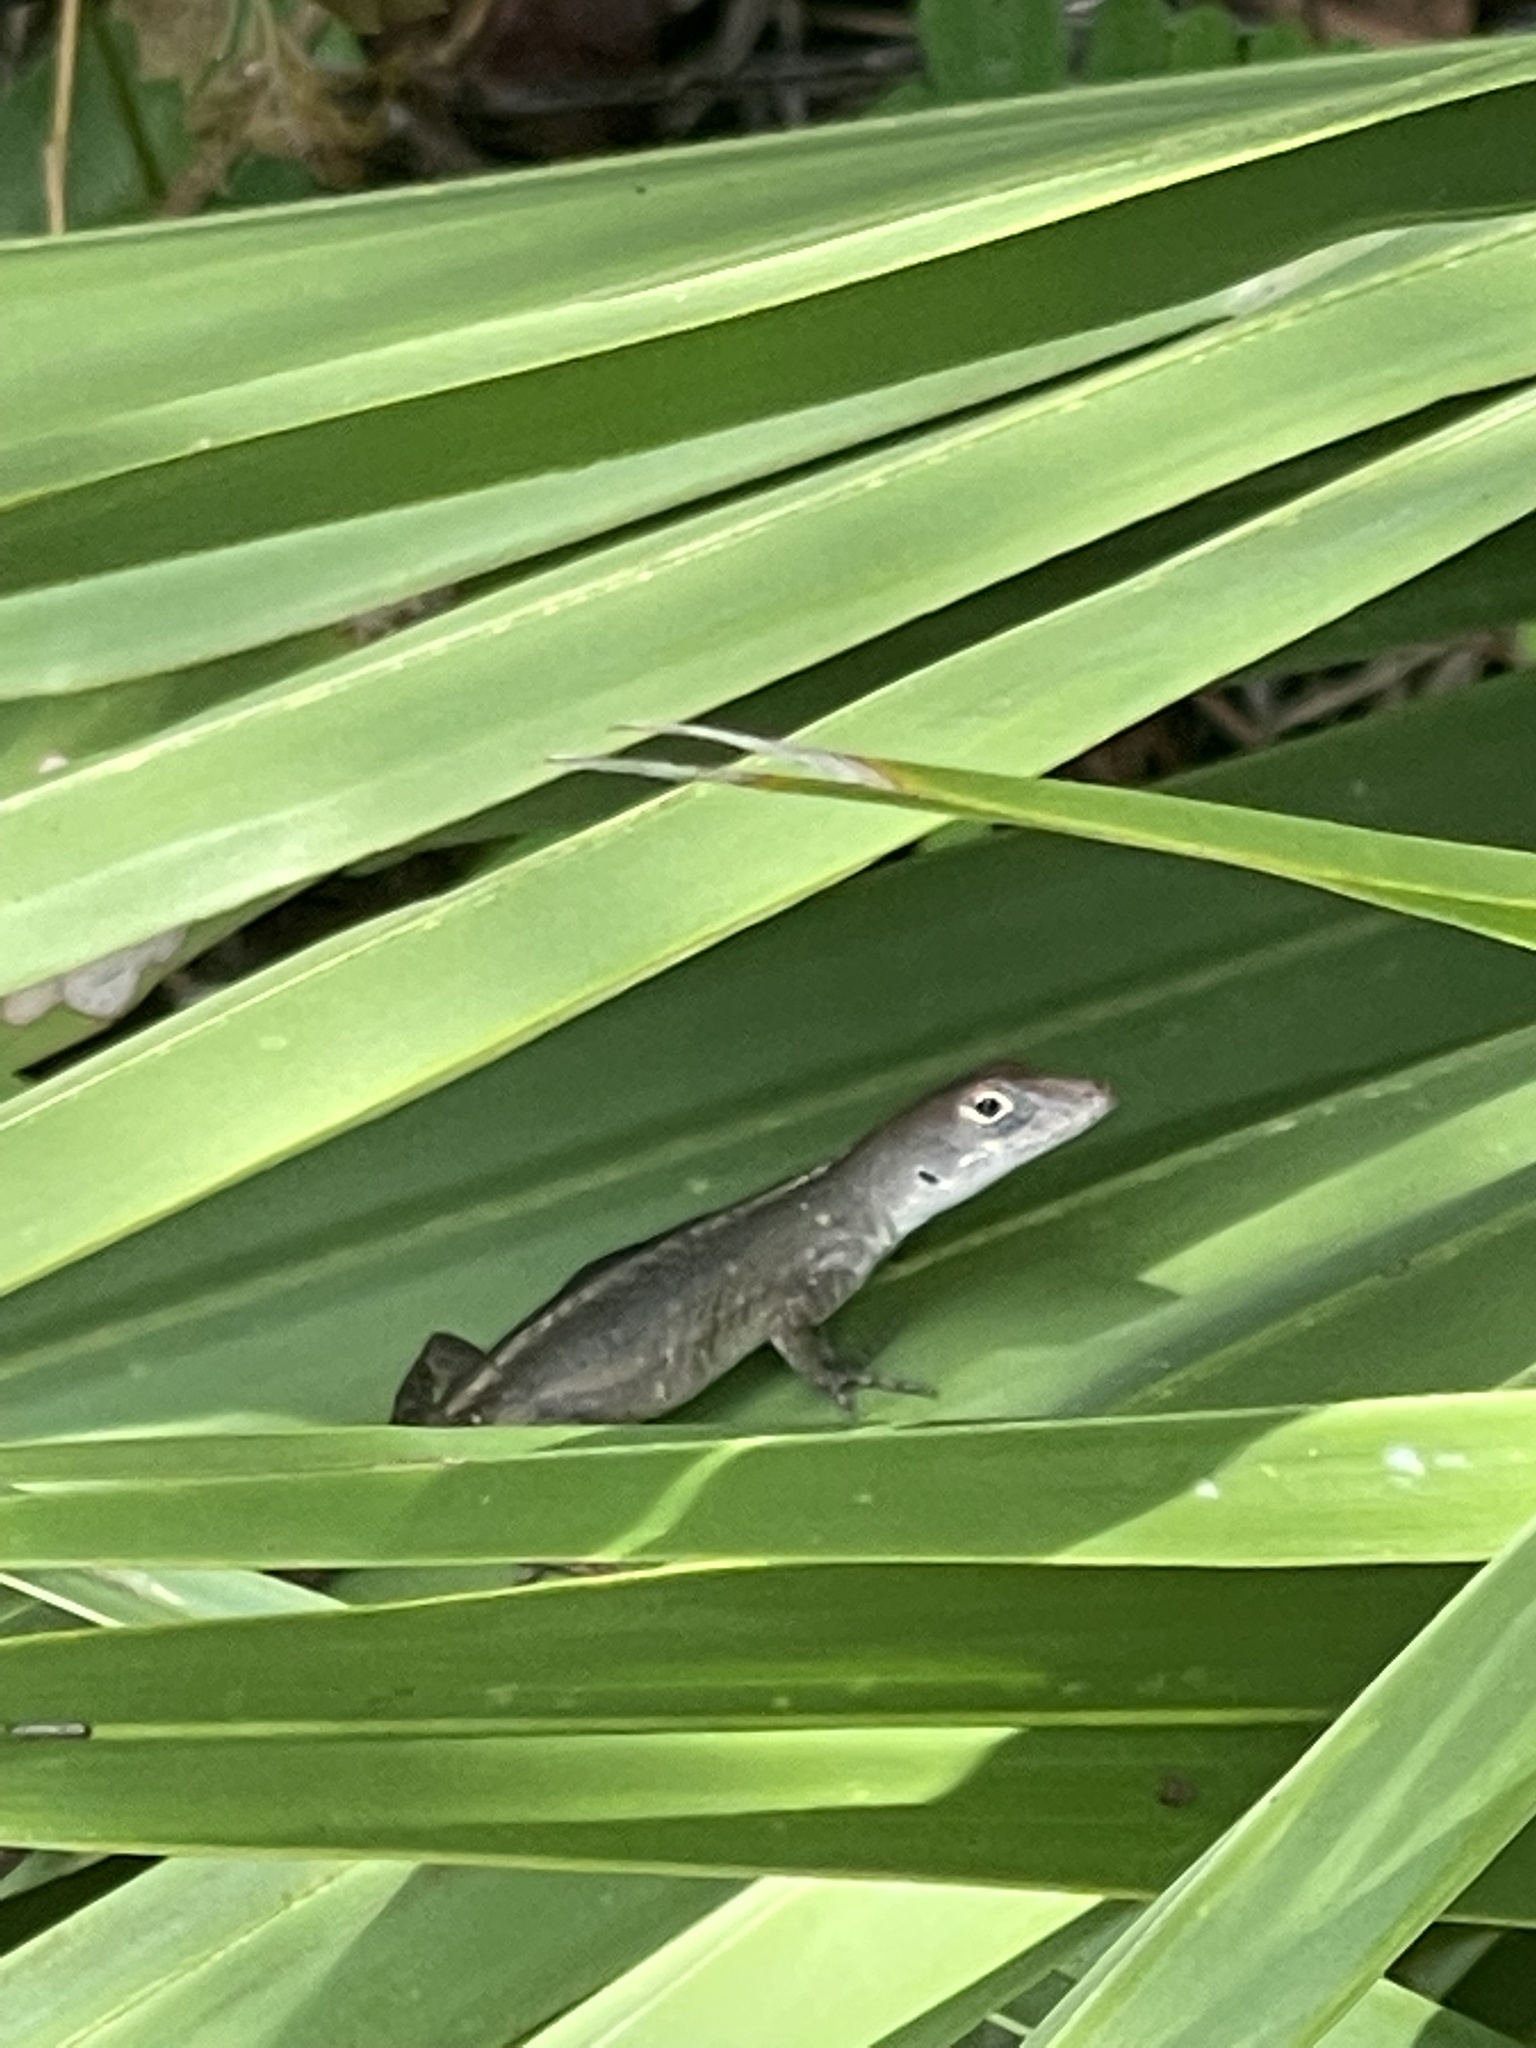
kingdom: Animalia
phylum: Chordata
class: Squamata
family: Dactyloidae
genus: Anolis
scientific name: Anolis sagrei
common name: Brown anole
